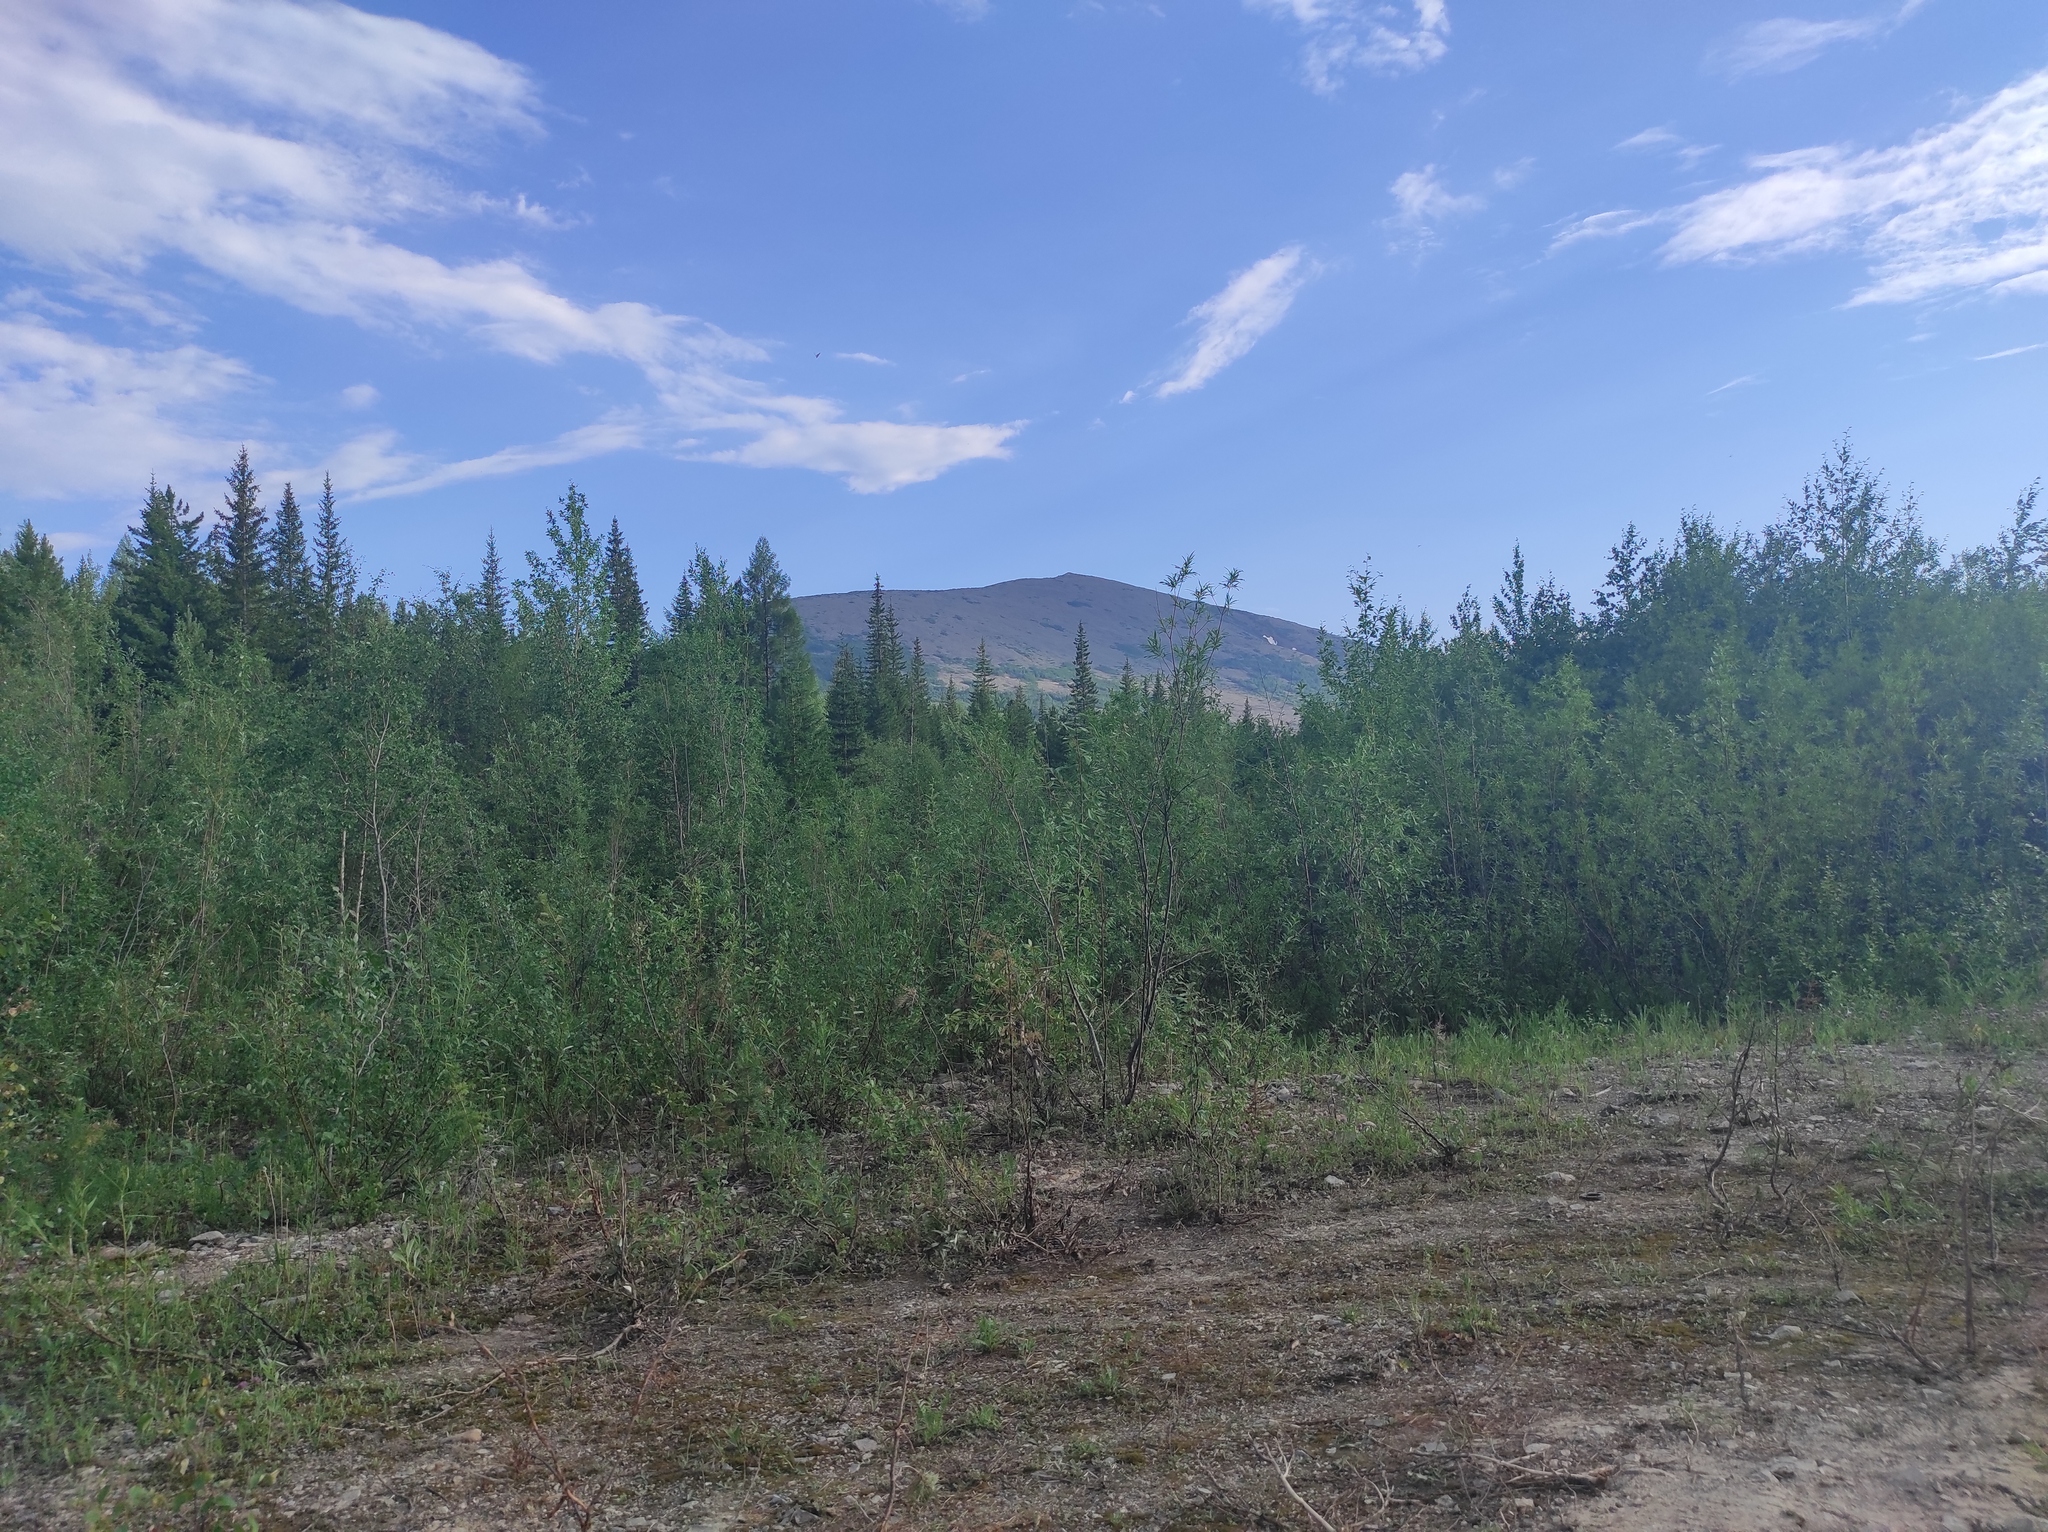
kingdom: Plantae
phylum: Tracheophyta
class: Pinopsida
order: Pinales
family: Pinaceae
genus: Picea
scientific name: Picea obovata
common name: Siberian spruce
